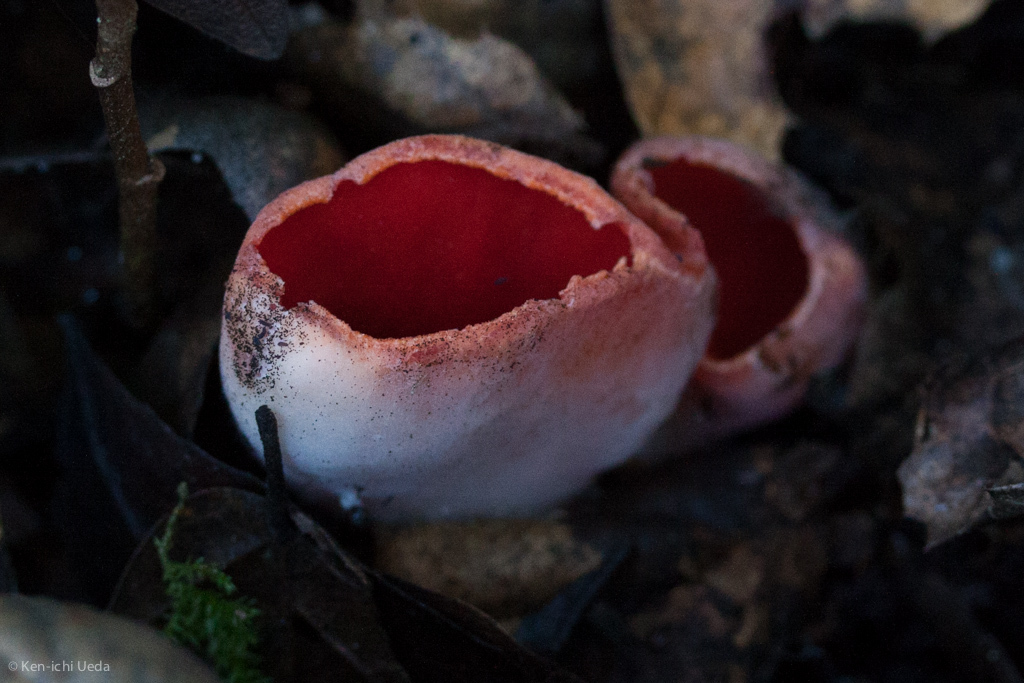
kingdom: Fungi
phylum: Ascomycota
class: Pezizomycetes
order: Pezizales
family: Sarcoscyphaceae
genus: Sarcoscypha
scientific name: Sarcoscypha coccinea
